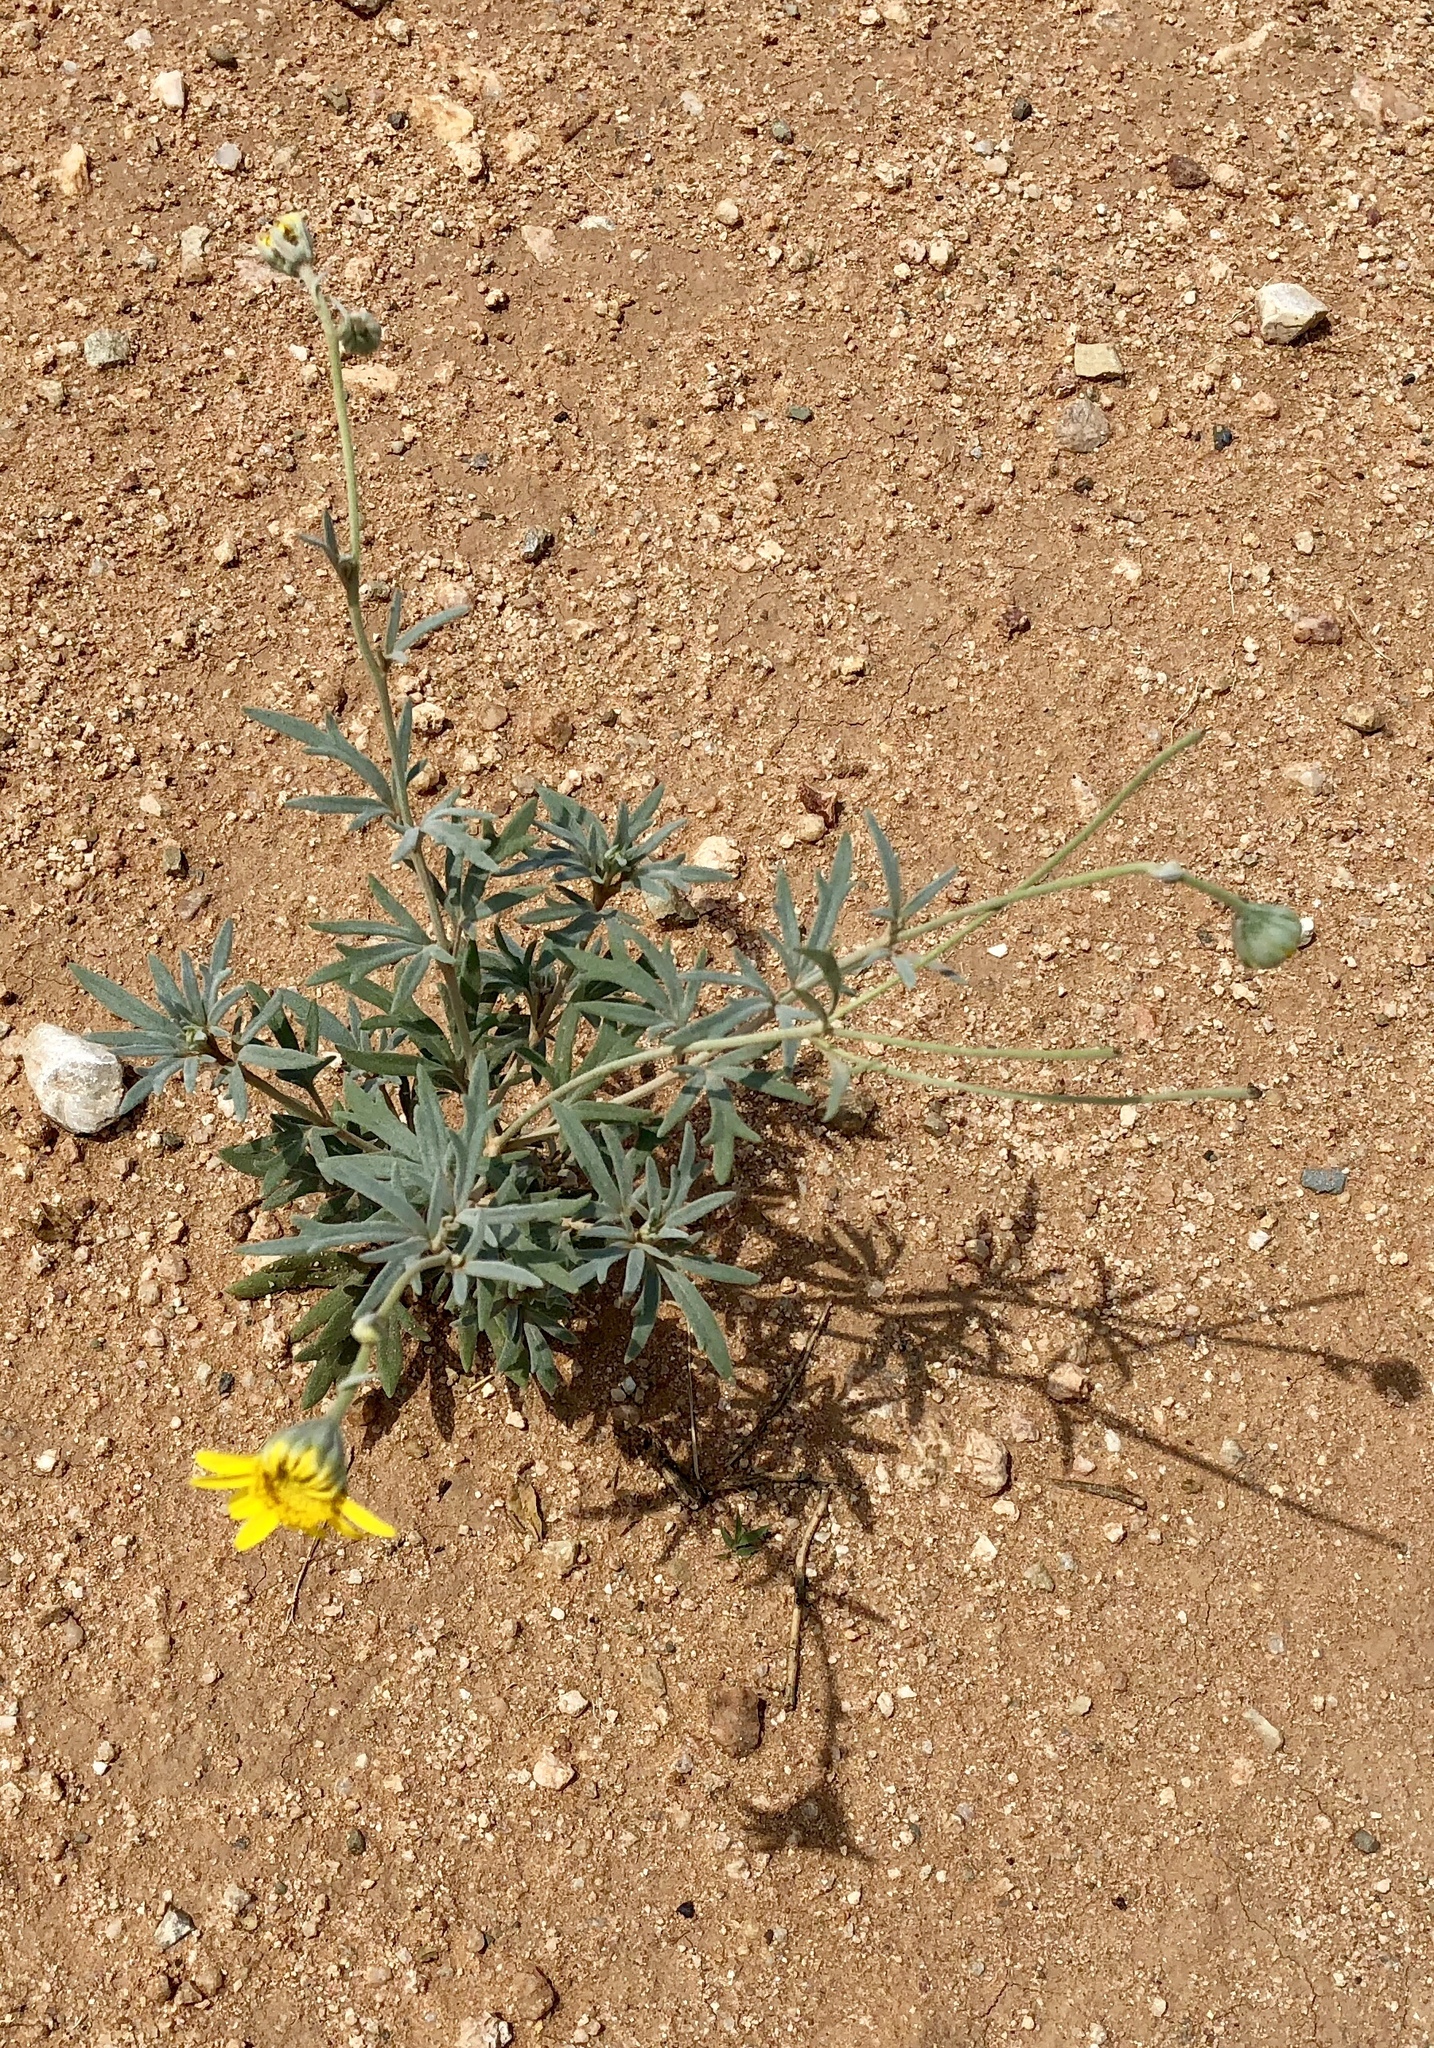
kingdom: Plantae
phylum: Tracheophyta
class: Magnoliopsida
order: Asterales
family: Asteraceae
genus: Picradeniopsis
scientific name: Picradeniopsis absinthifolia
